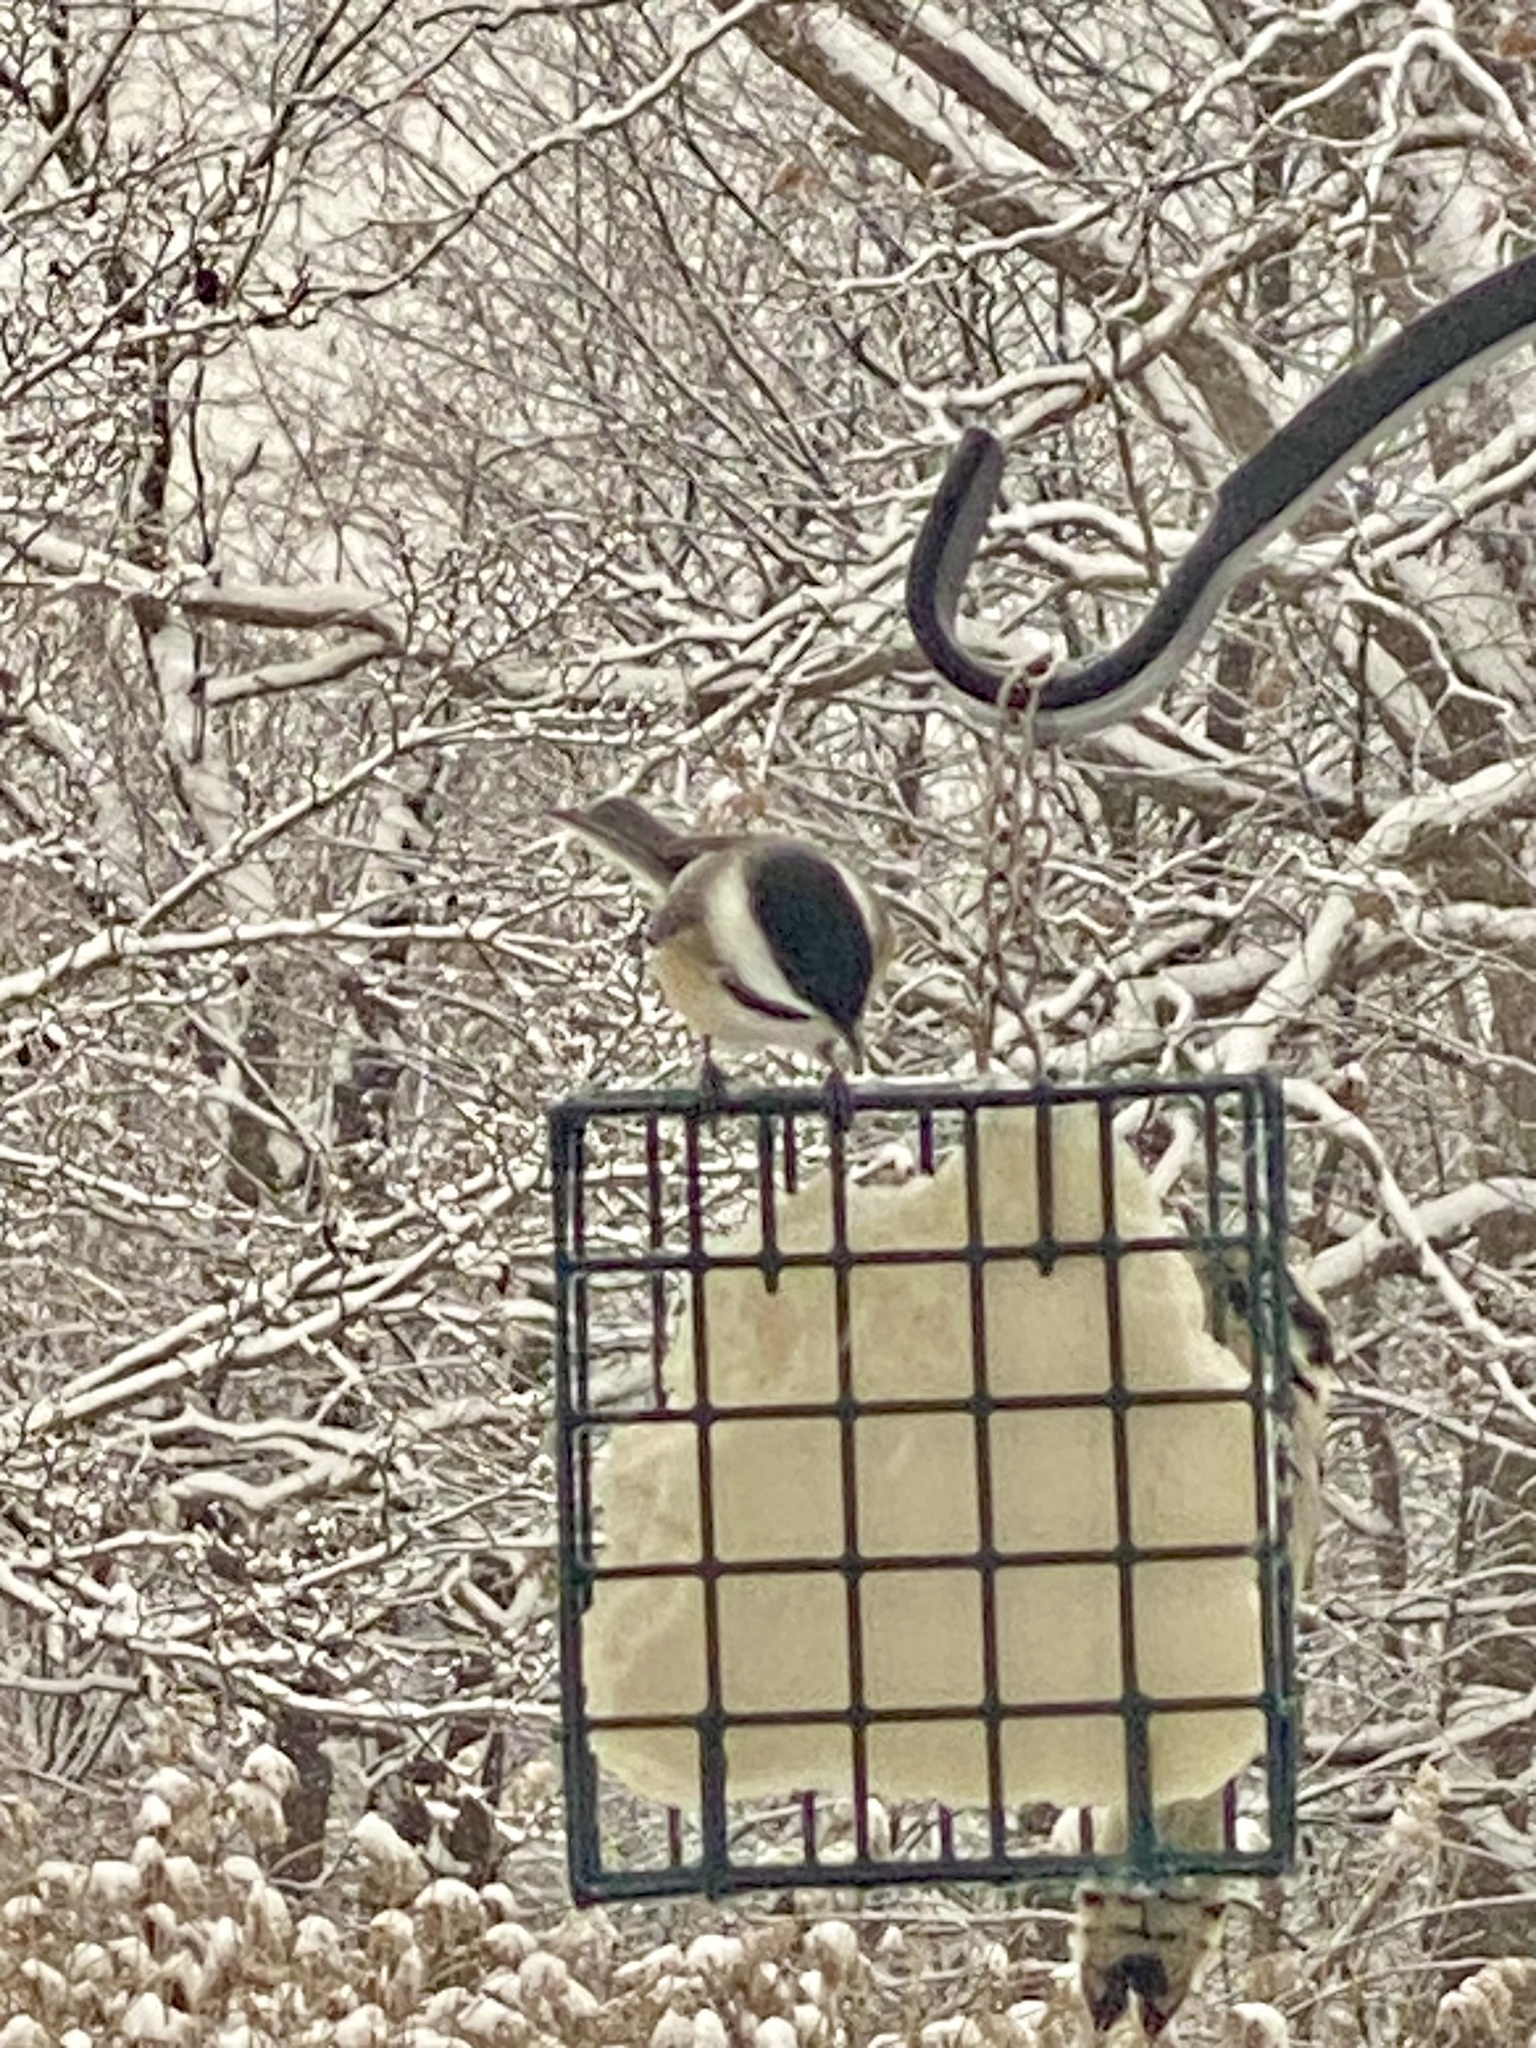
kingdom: Animalia
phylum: Chordata
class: Aves
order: Passeriformes
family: Paridae
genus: Poecile
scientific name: Poecile atricapillus
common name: Black-capped chickadee
